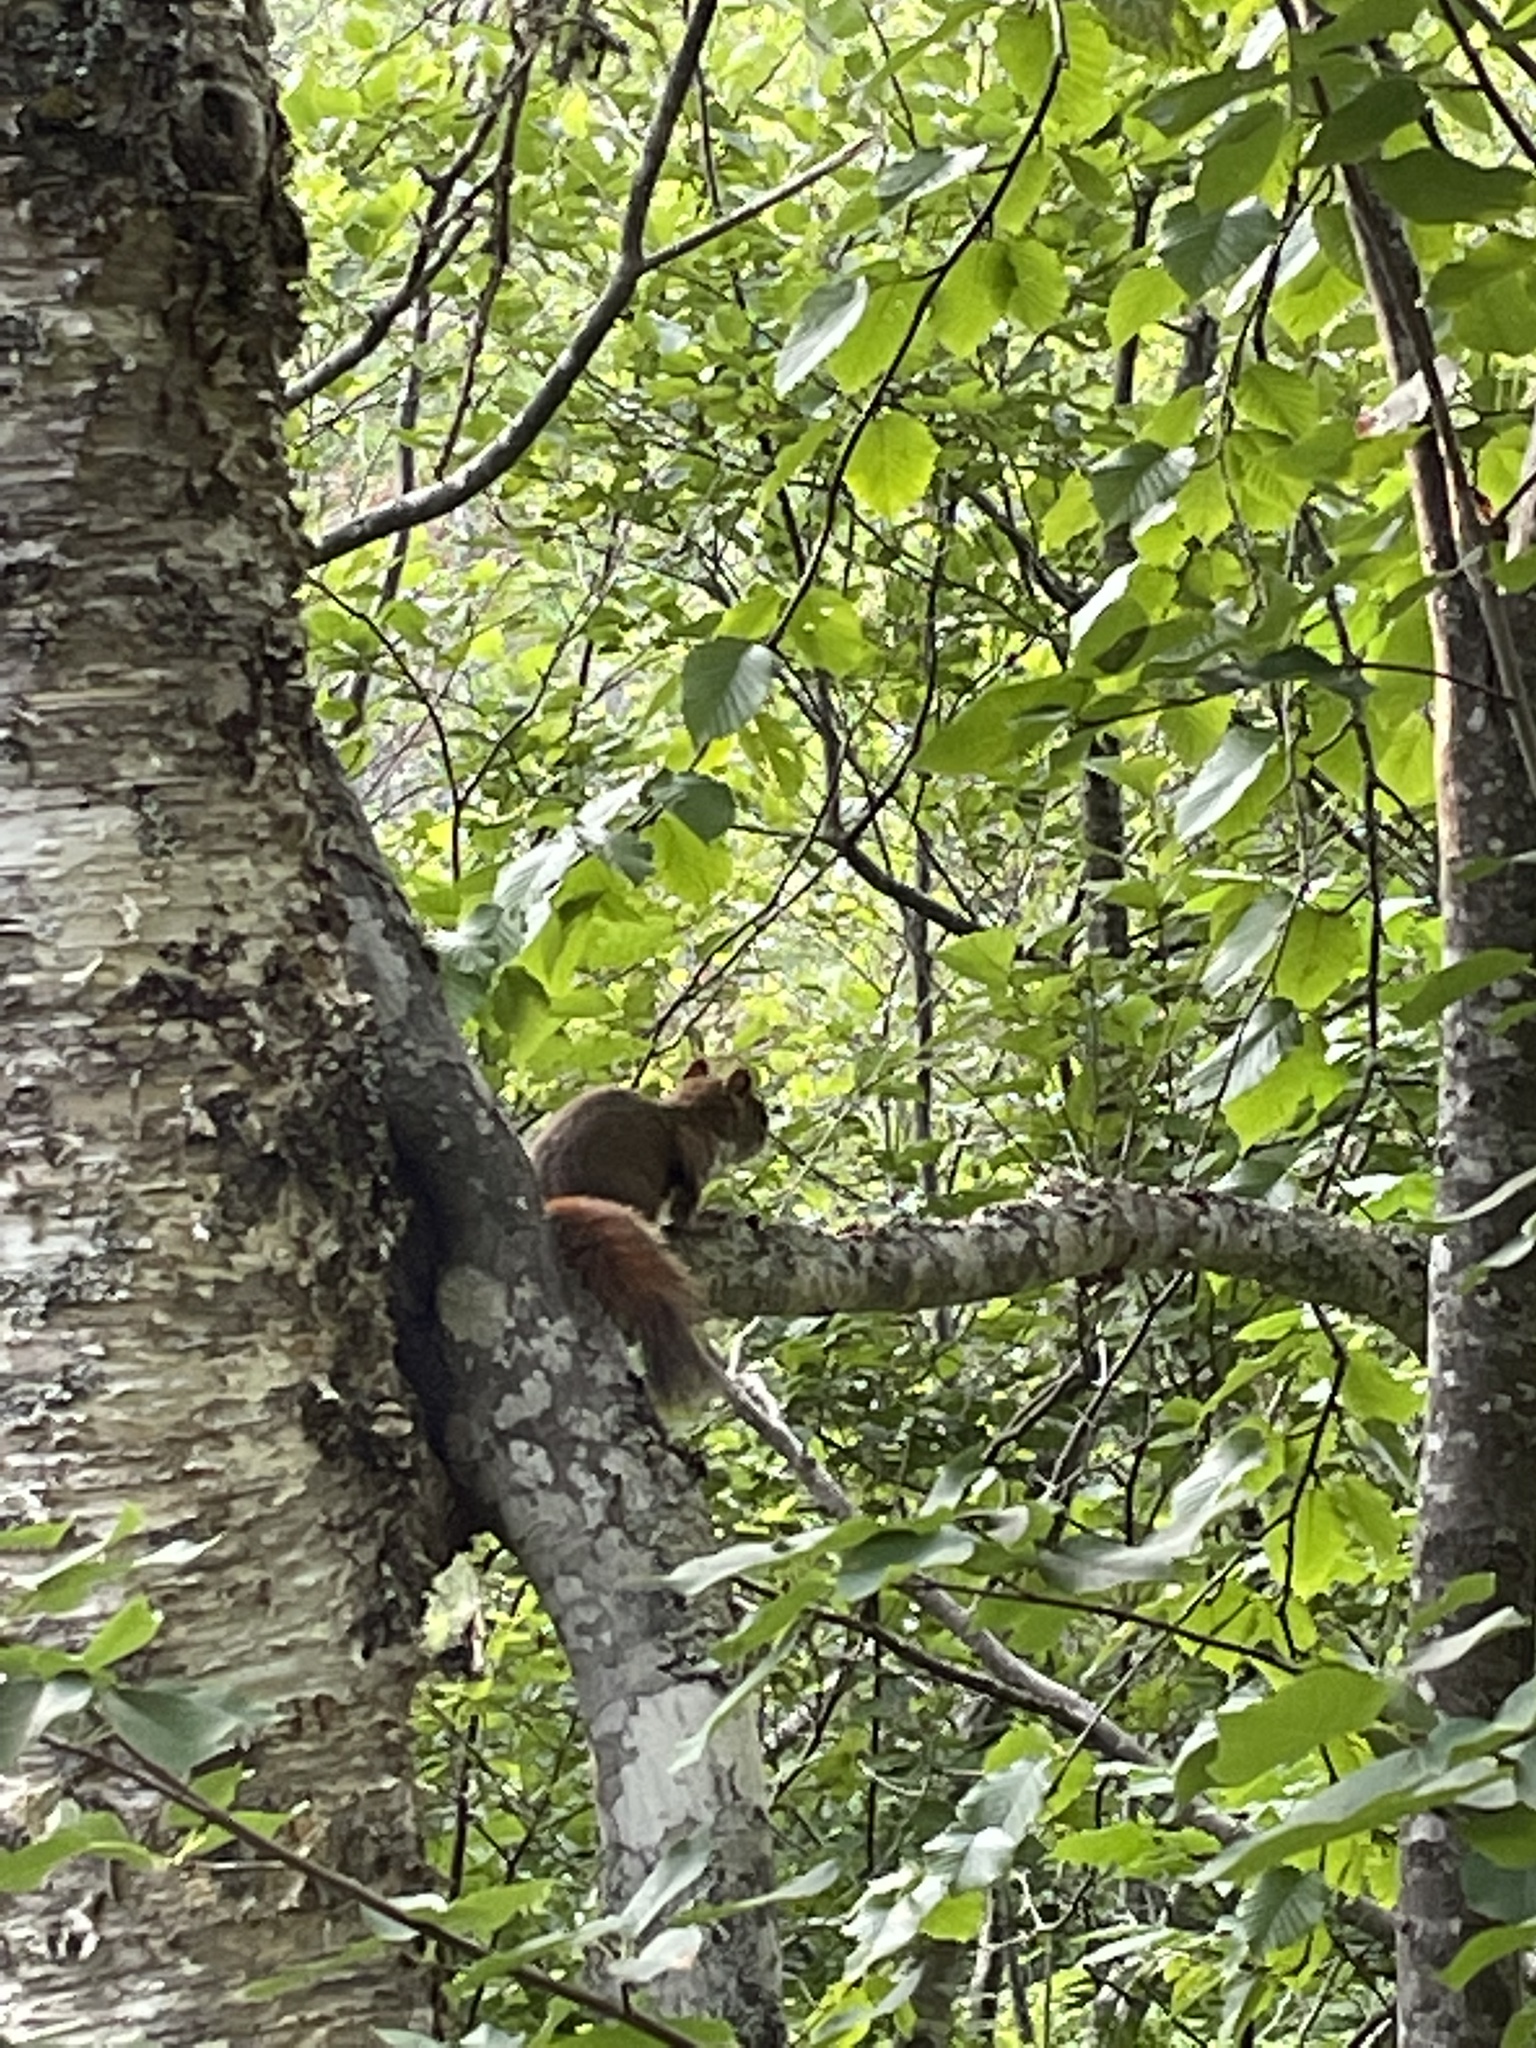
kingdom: Animalia
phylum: Chordata
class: Mammalia
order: Rodentia
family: Sciuridae
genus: Tamiasciurus
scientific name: Tamiasciurus hudsonicus
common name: Red squirrel
